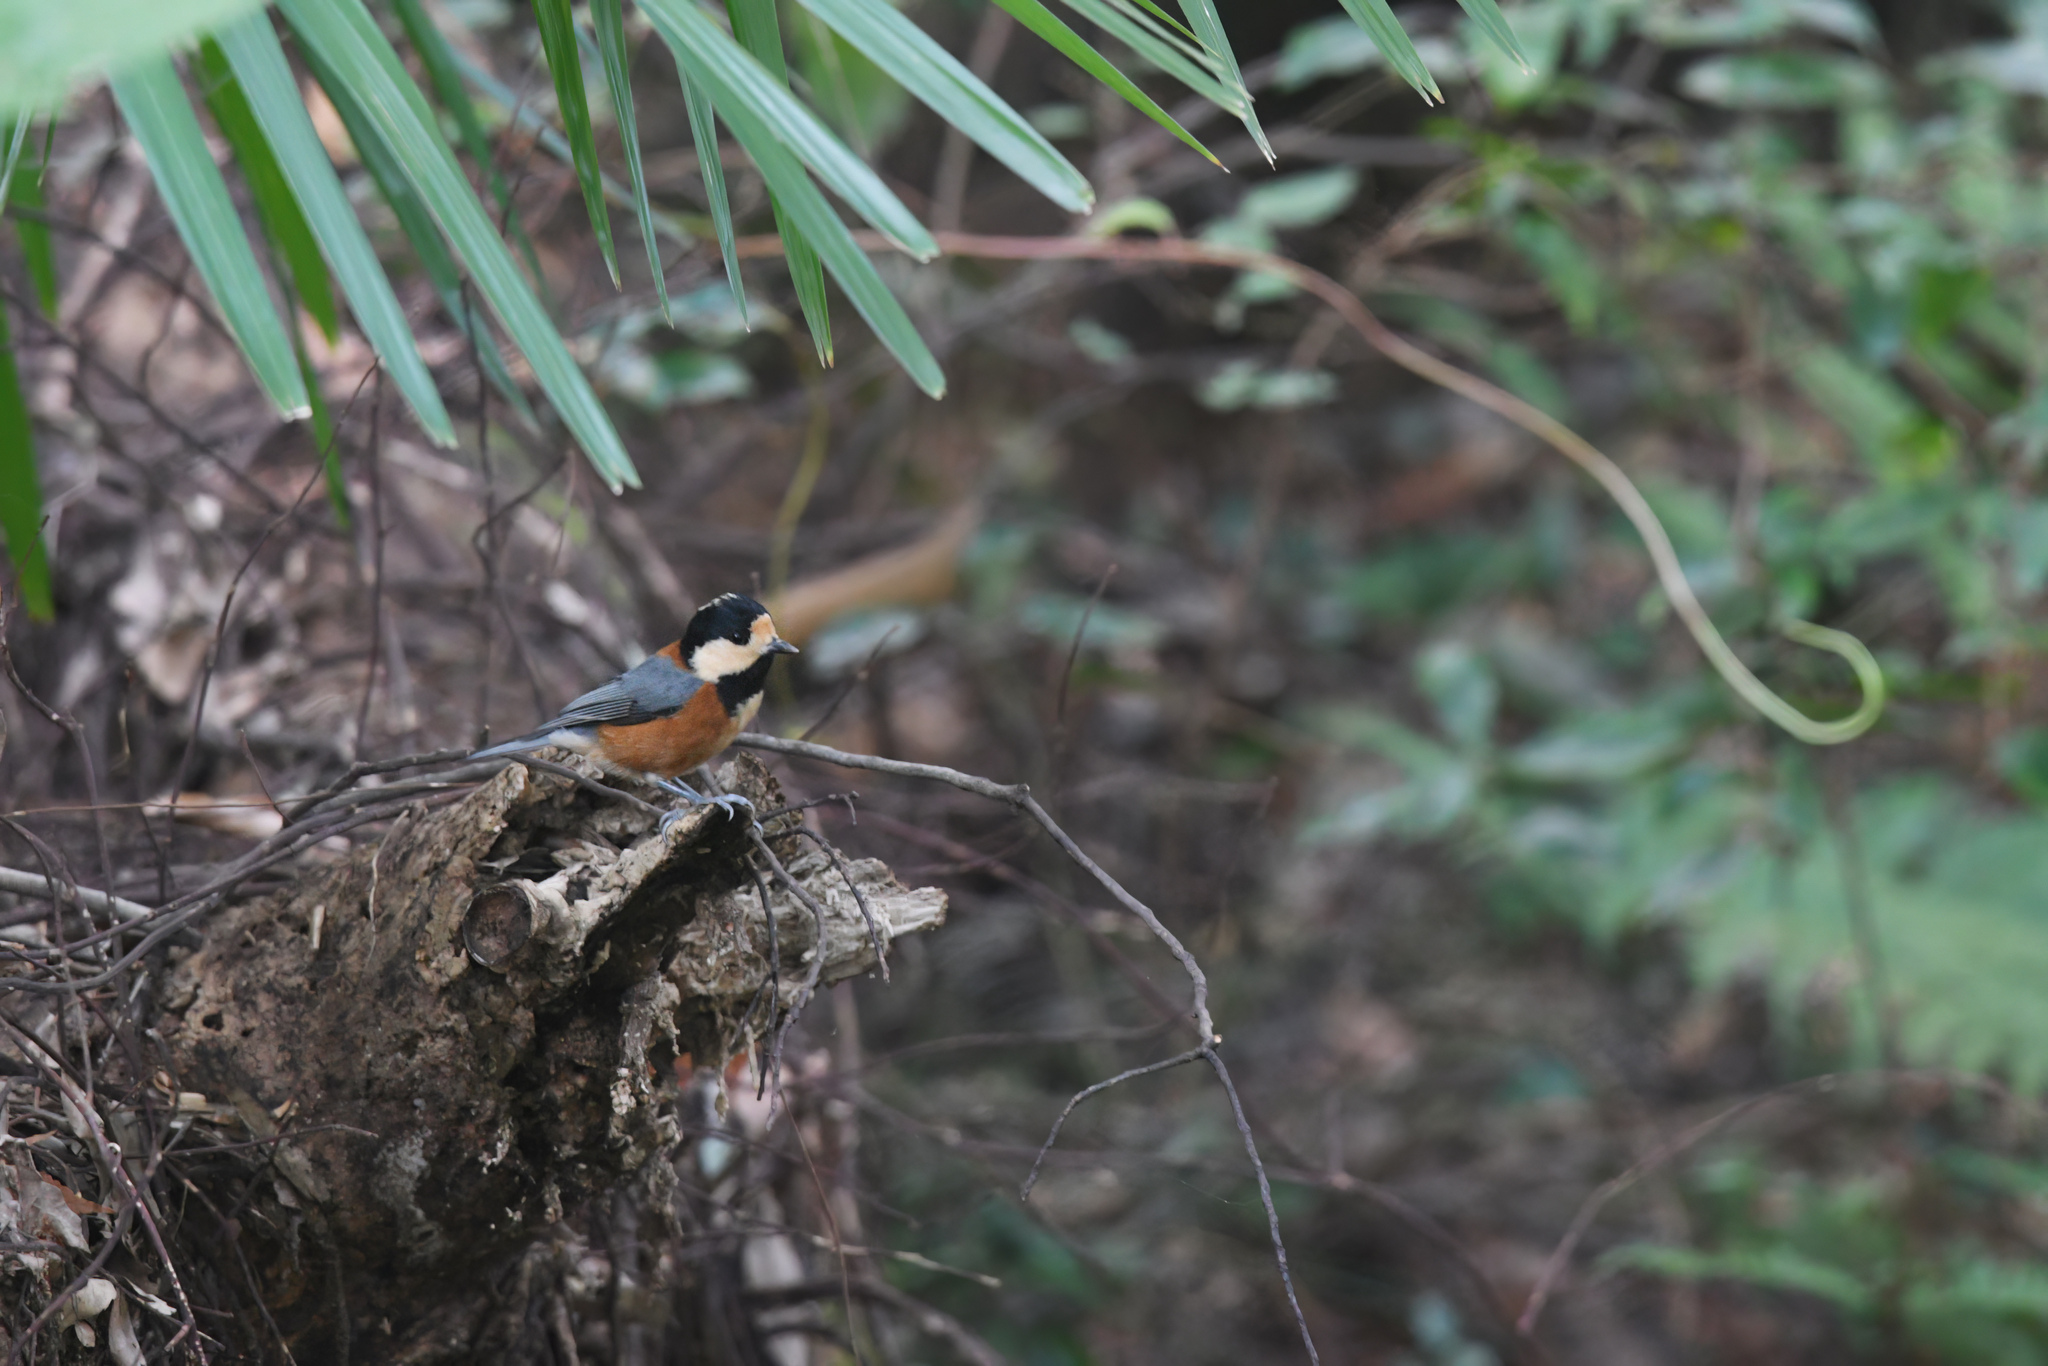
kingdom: Animalia
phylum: Chordata
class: Aves
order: Passeriformes
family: Paridae
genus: Poecile
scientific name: Poecile varius
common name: Varied tit
